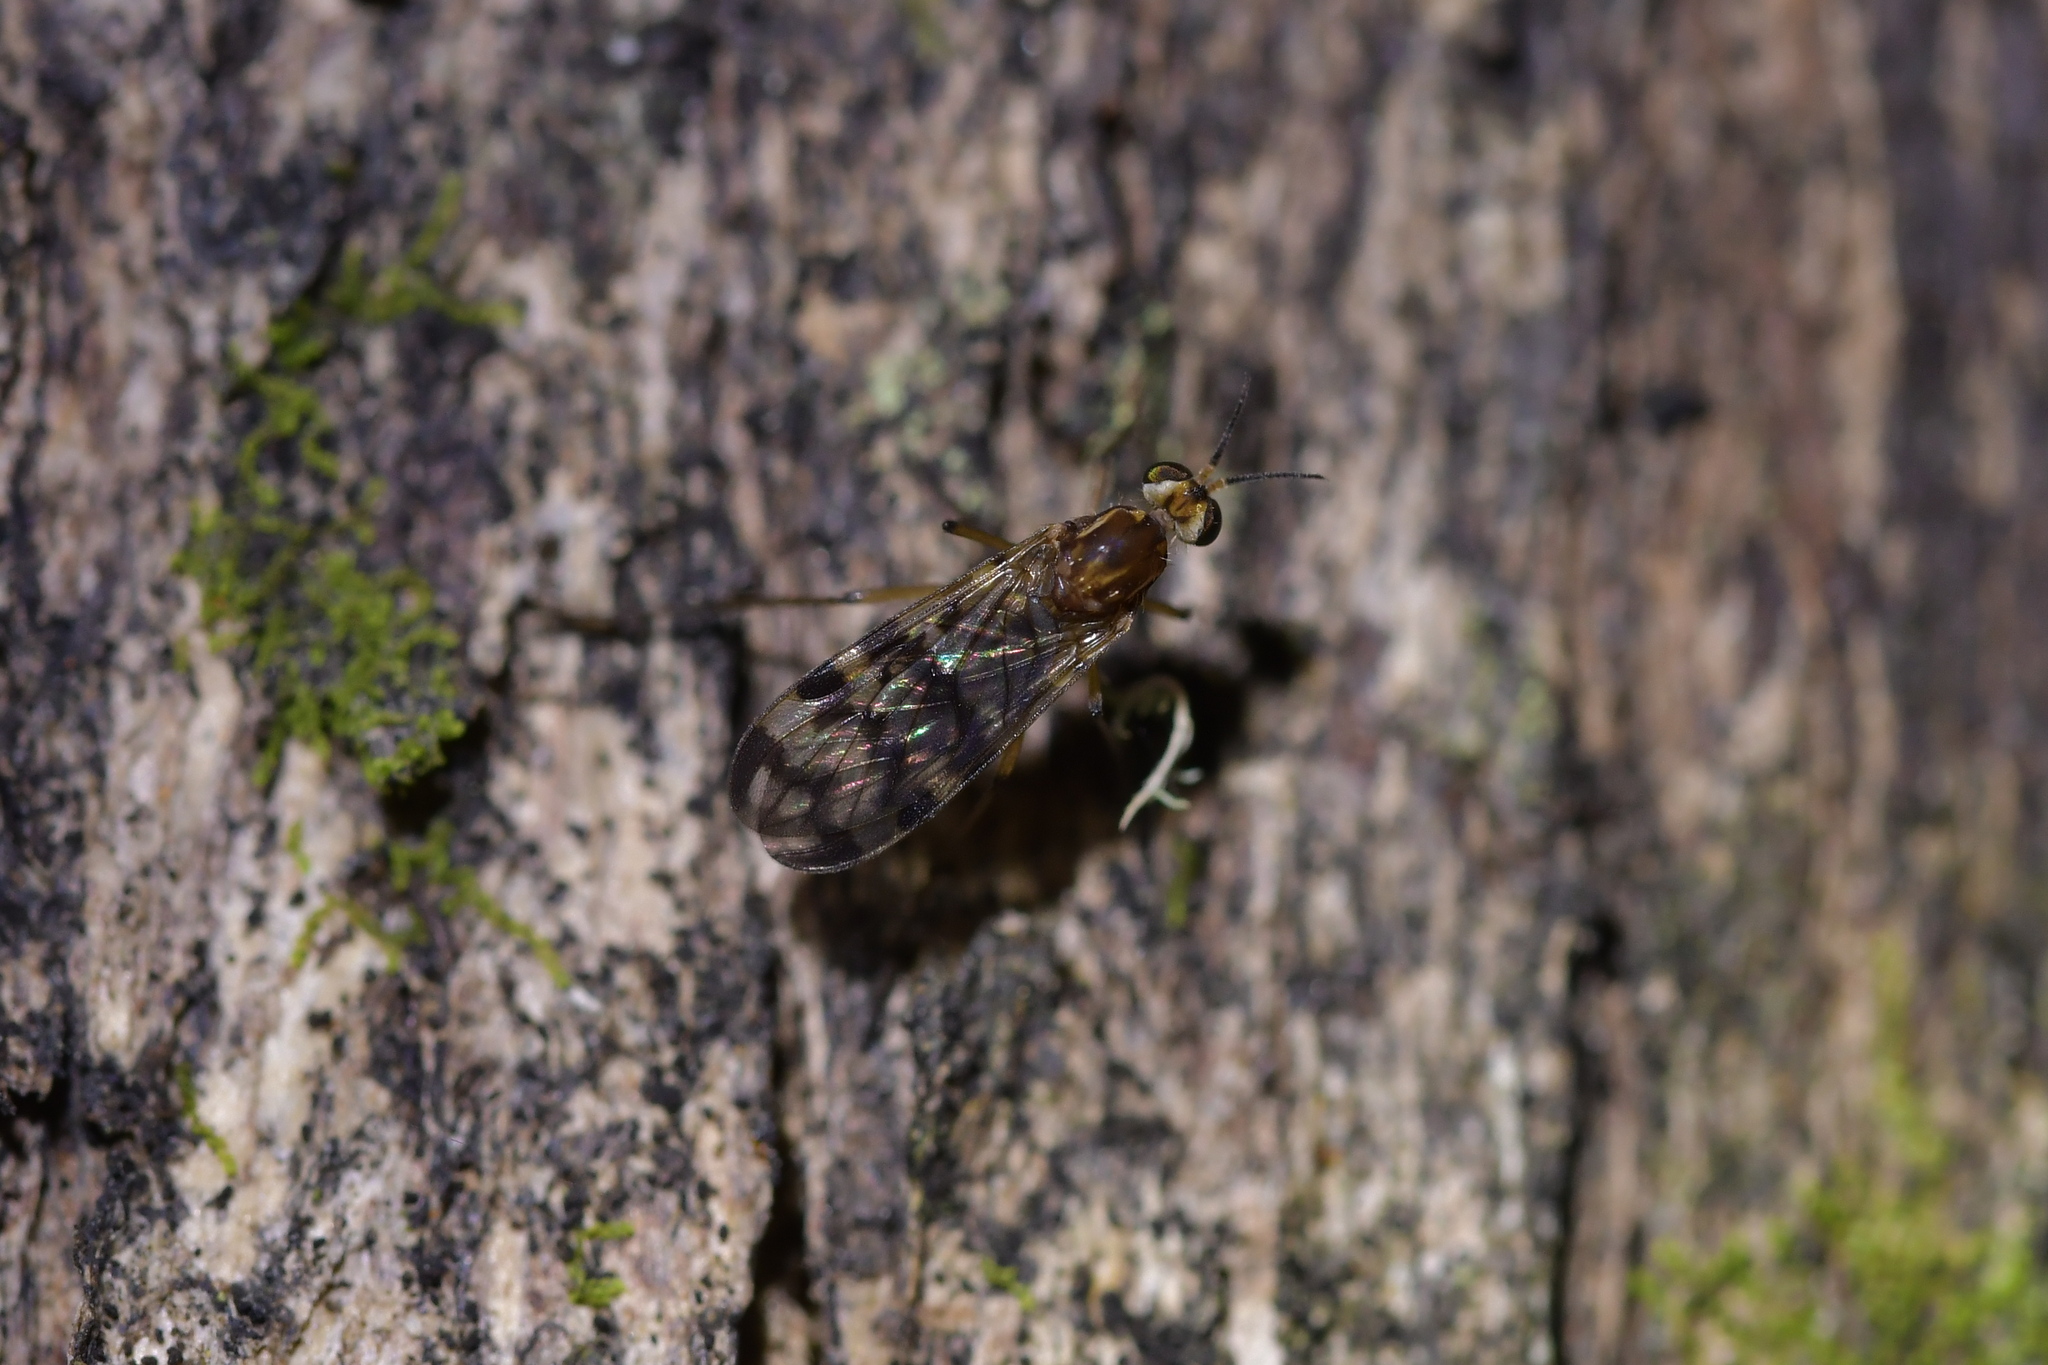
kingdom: Animalia
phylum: Arthropoda
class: Insecta
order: Diptera
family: Anisopodidae
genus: Sylvicola
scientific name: Sylvicola dubius
